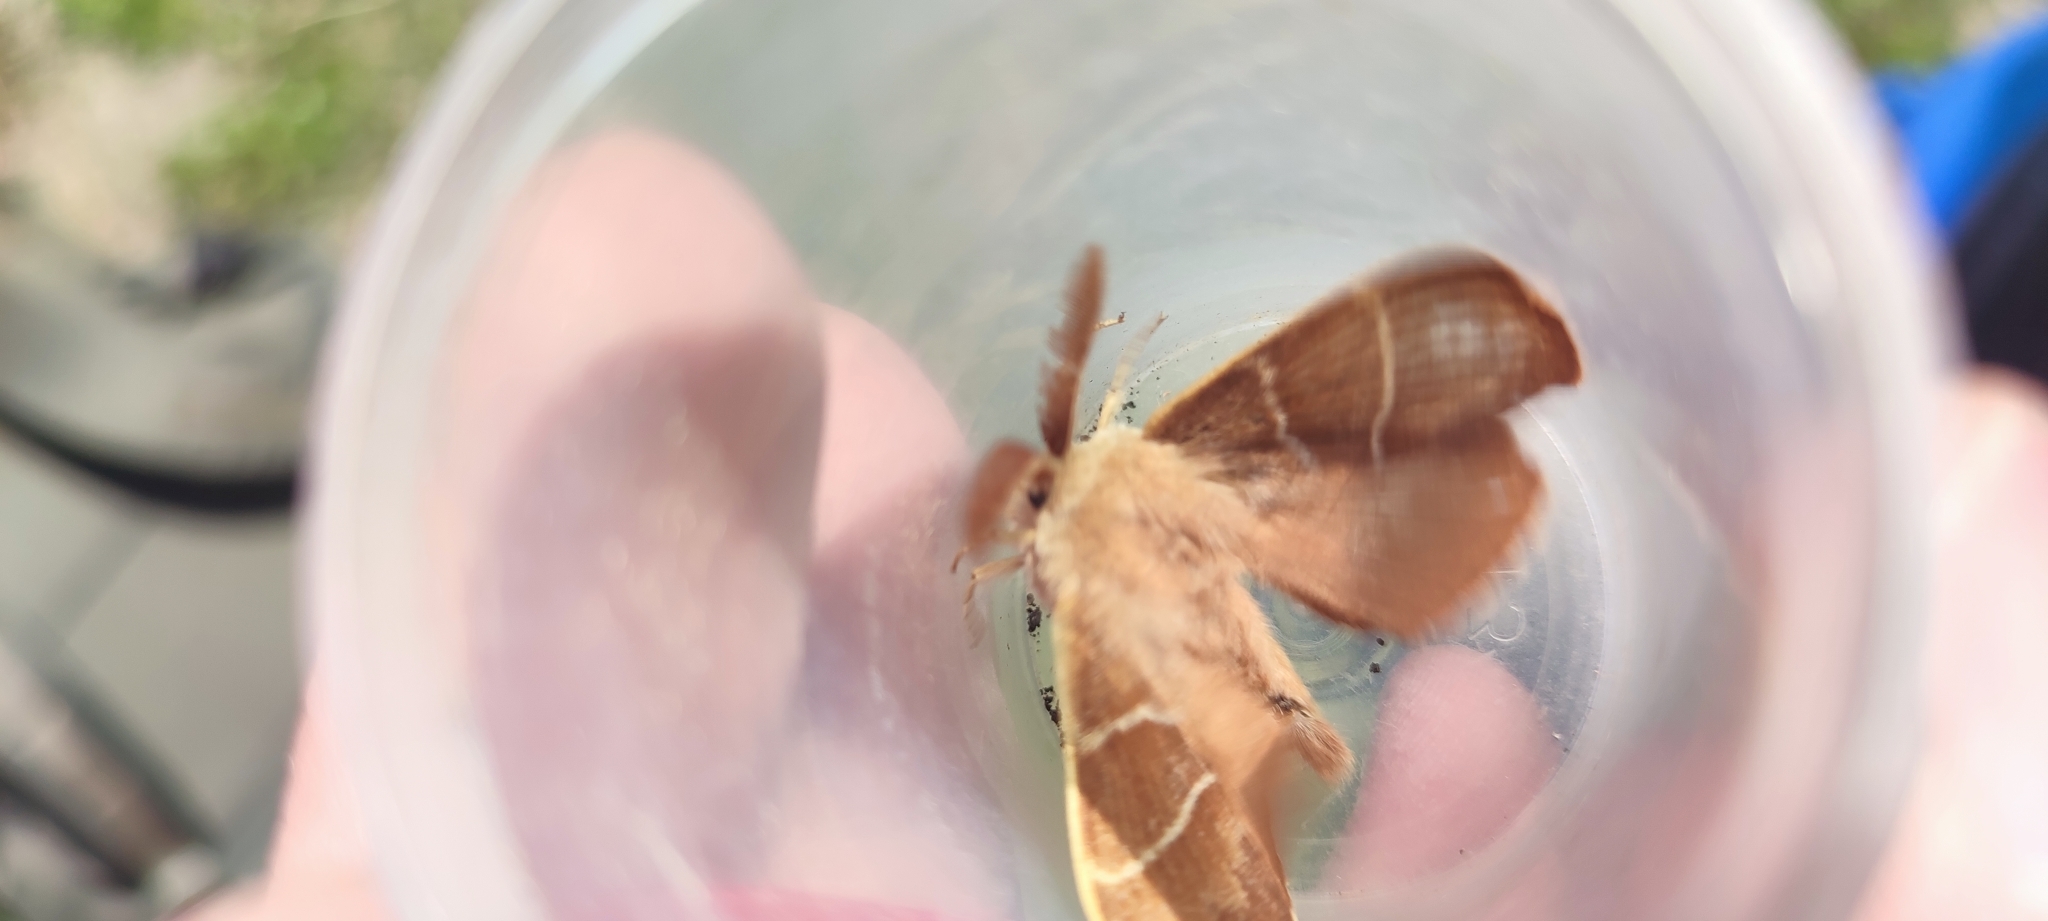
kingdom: Animalia
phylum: Arthropoda
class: Insecta
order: Lepidoptera
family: Lasiocampidae
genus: Macrothylacia
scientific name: Macrothylacia rubi
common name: Fox moth
